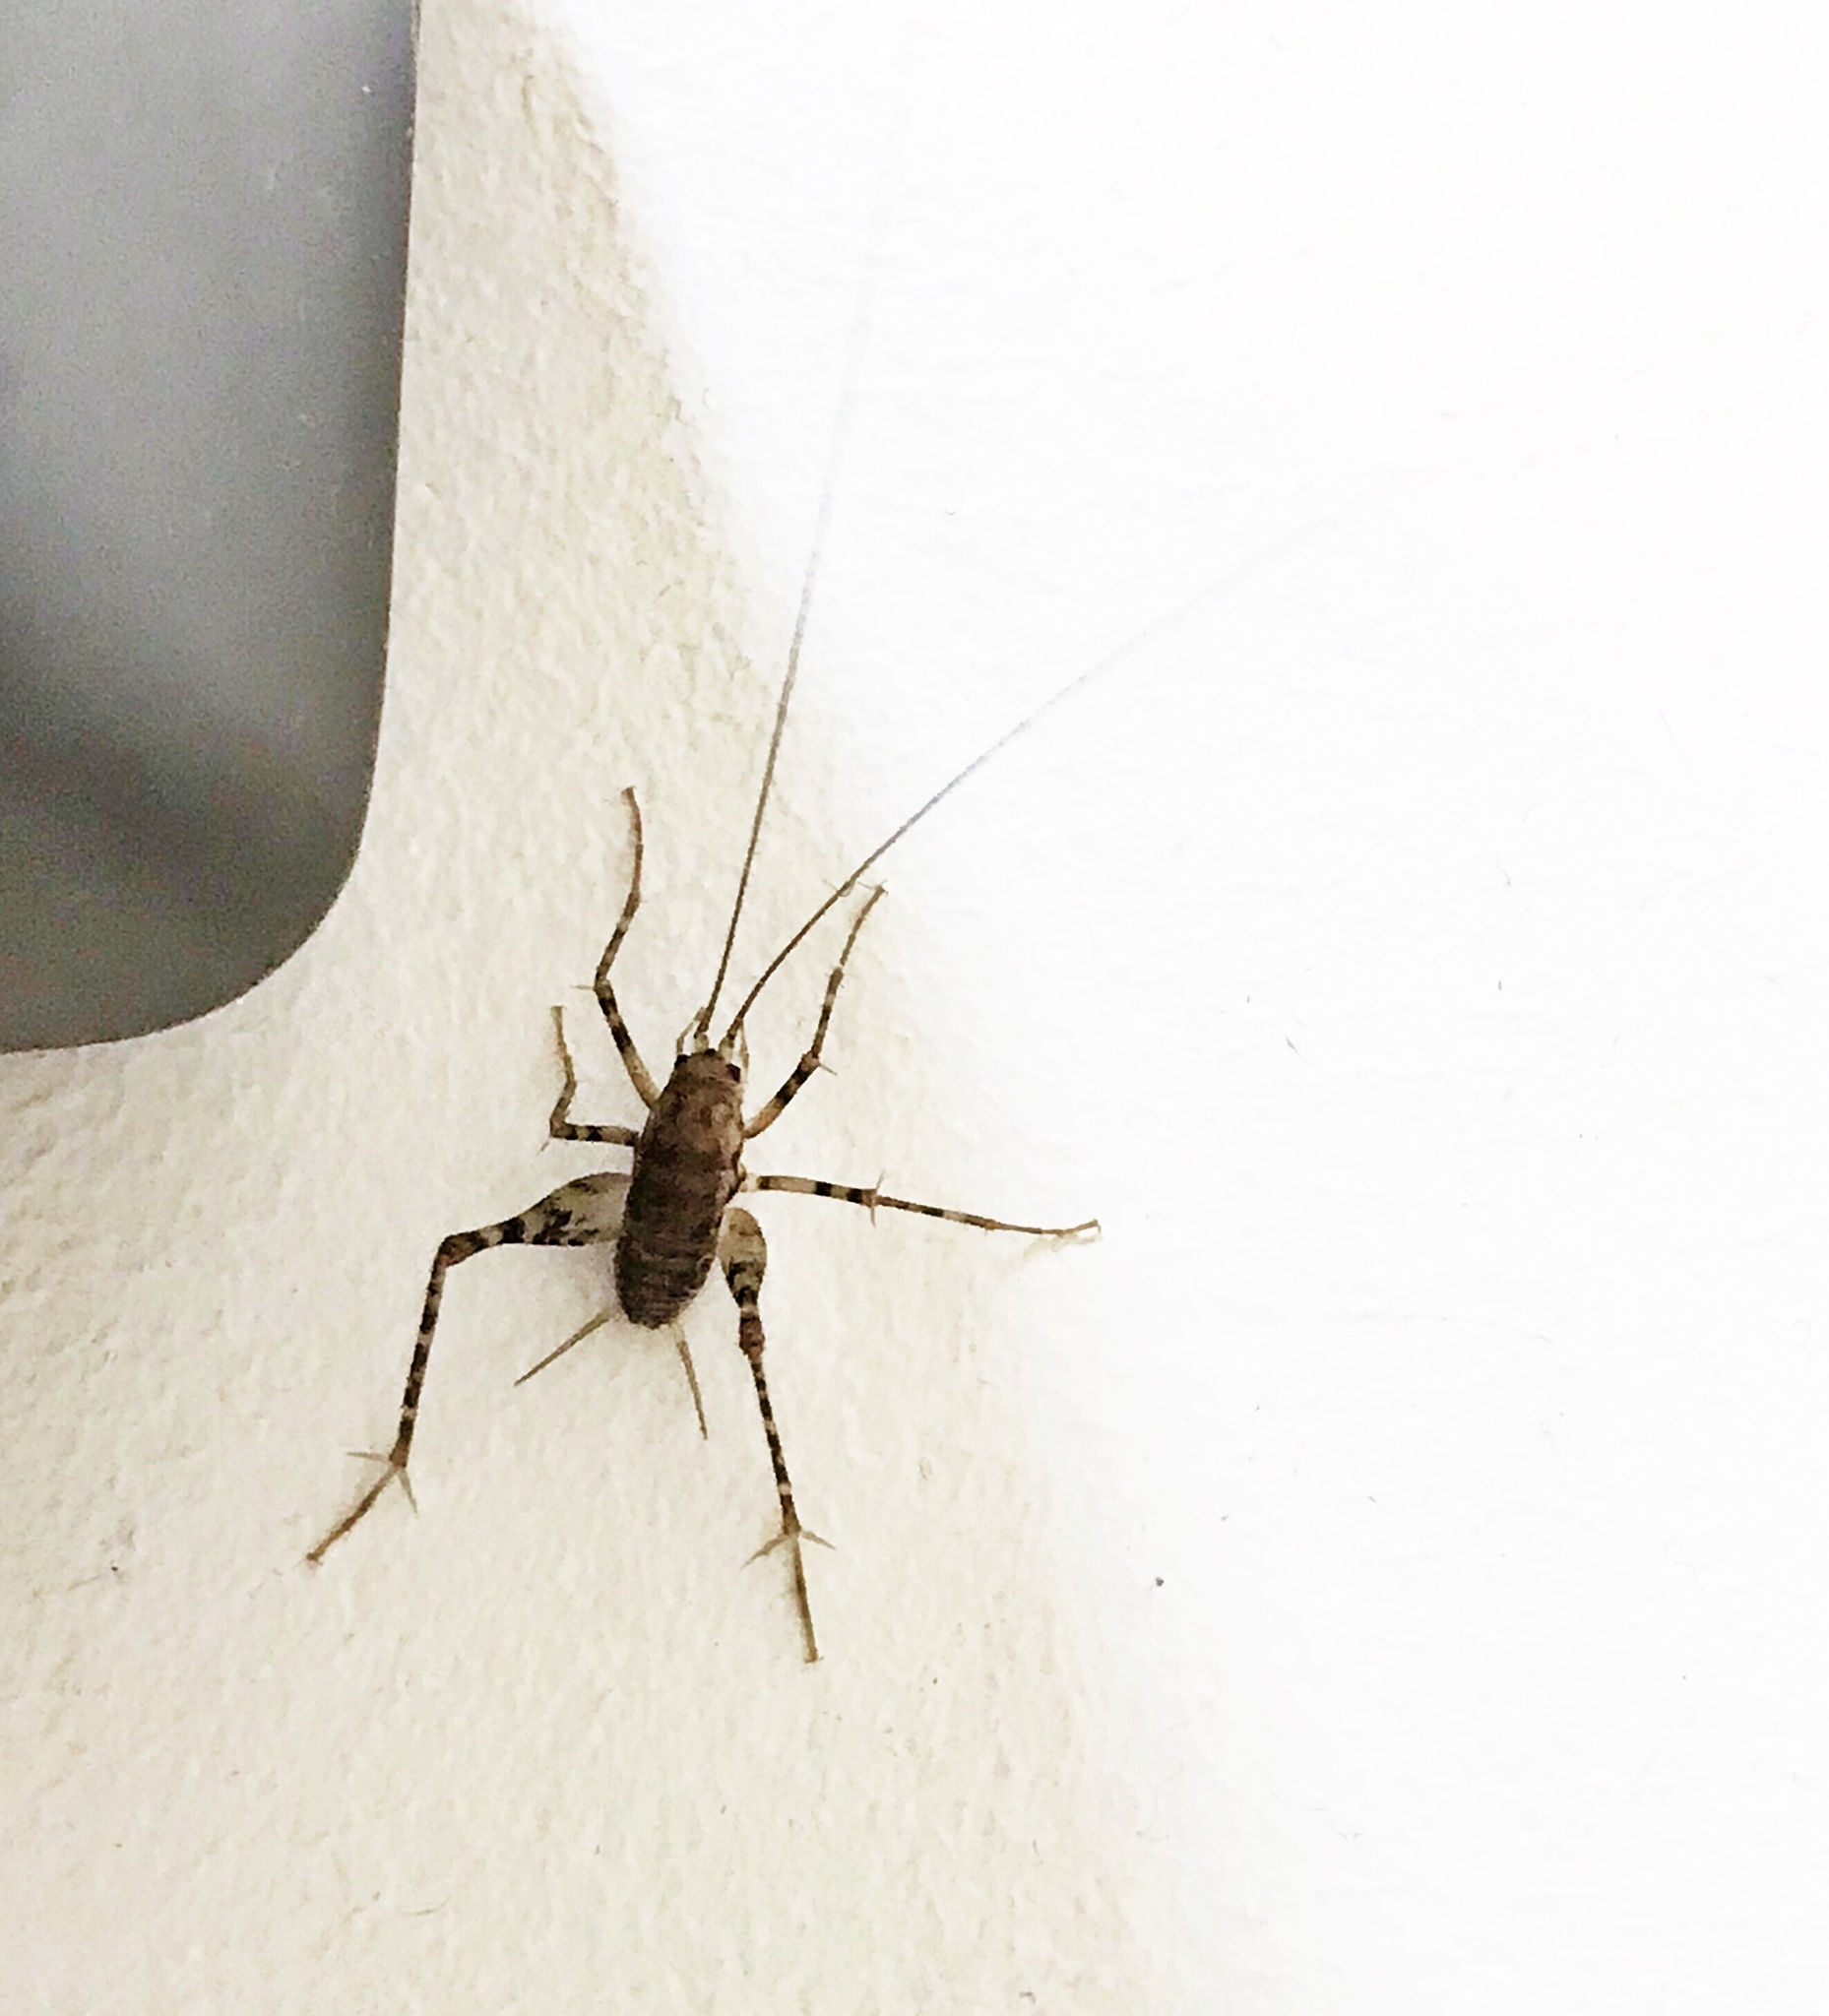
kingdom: Animalia
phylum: Arthropoda
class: Insecta
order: Orthoptera
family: Rhaphidophoridae
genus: Tachycines
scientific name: Tachycines asynamorus
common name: Greenhouse camel cricket
